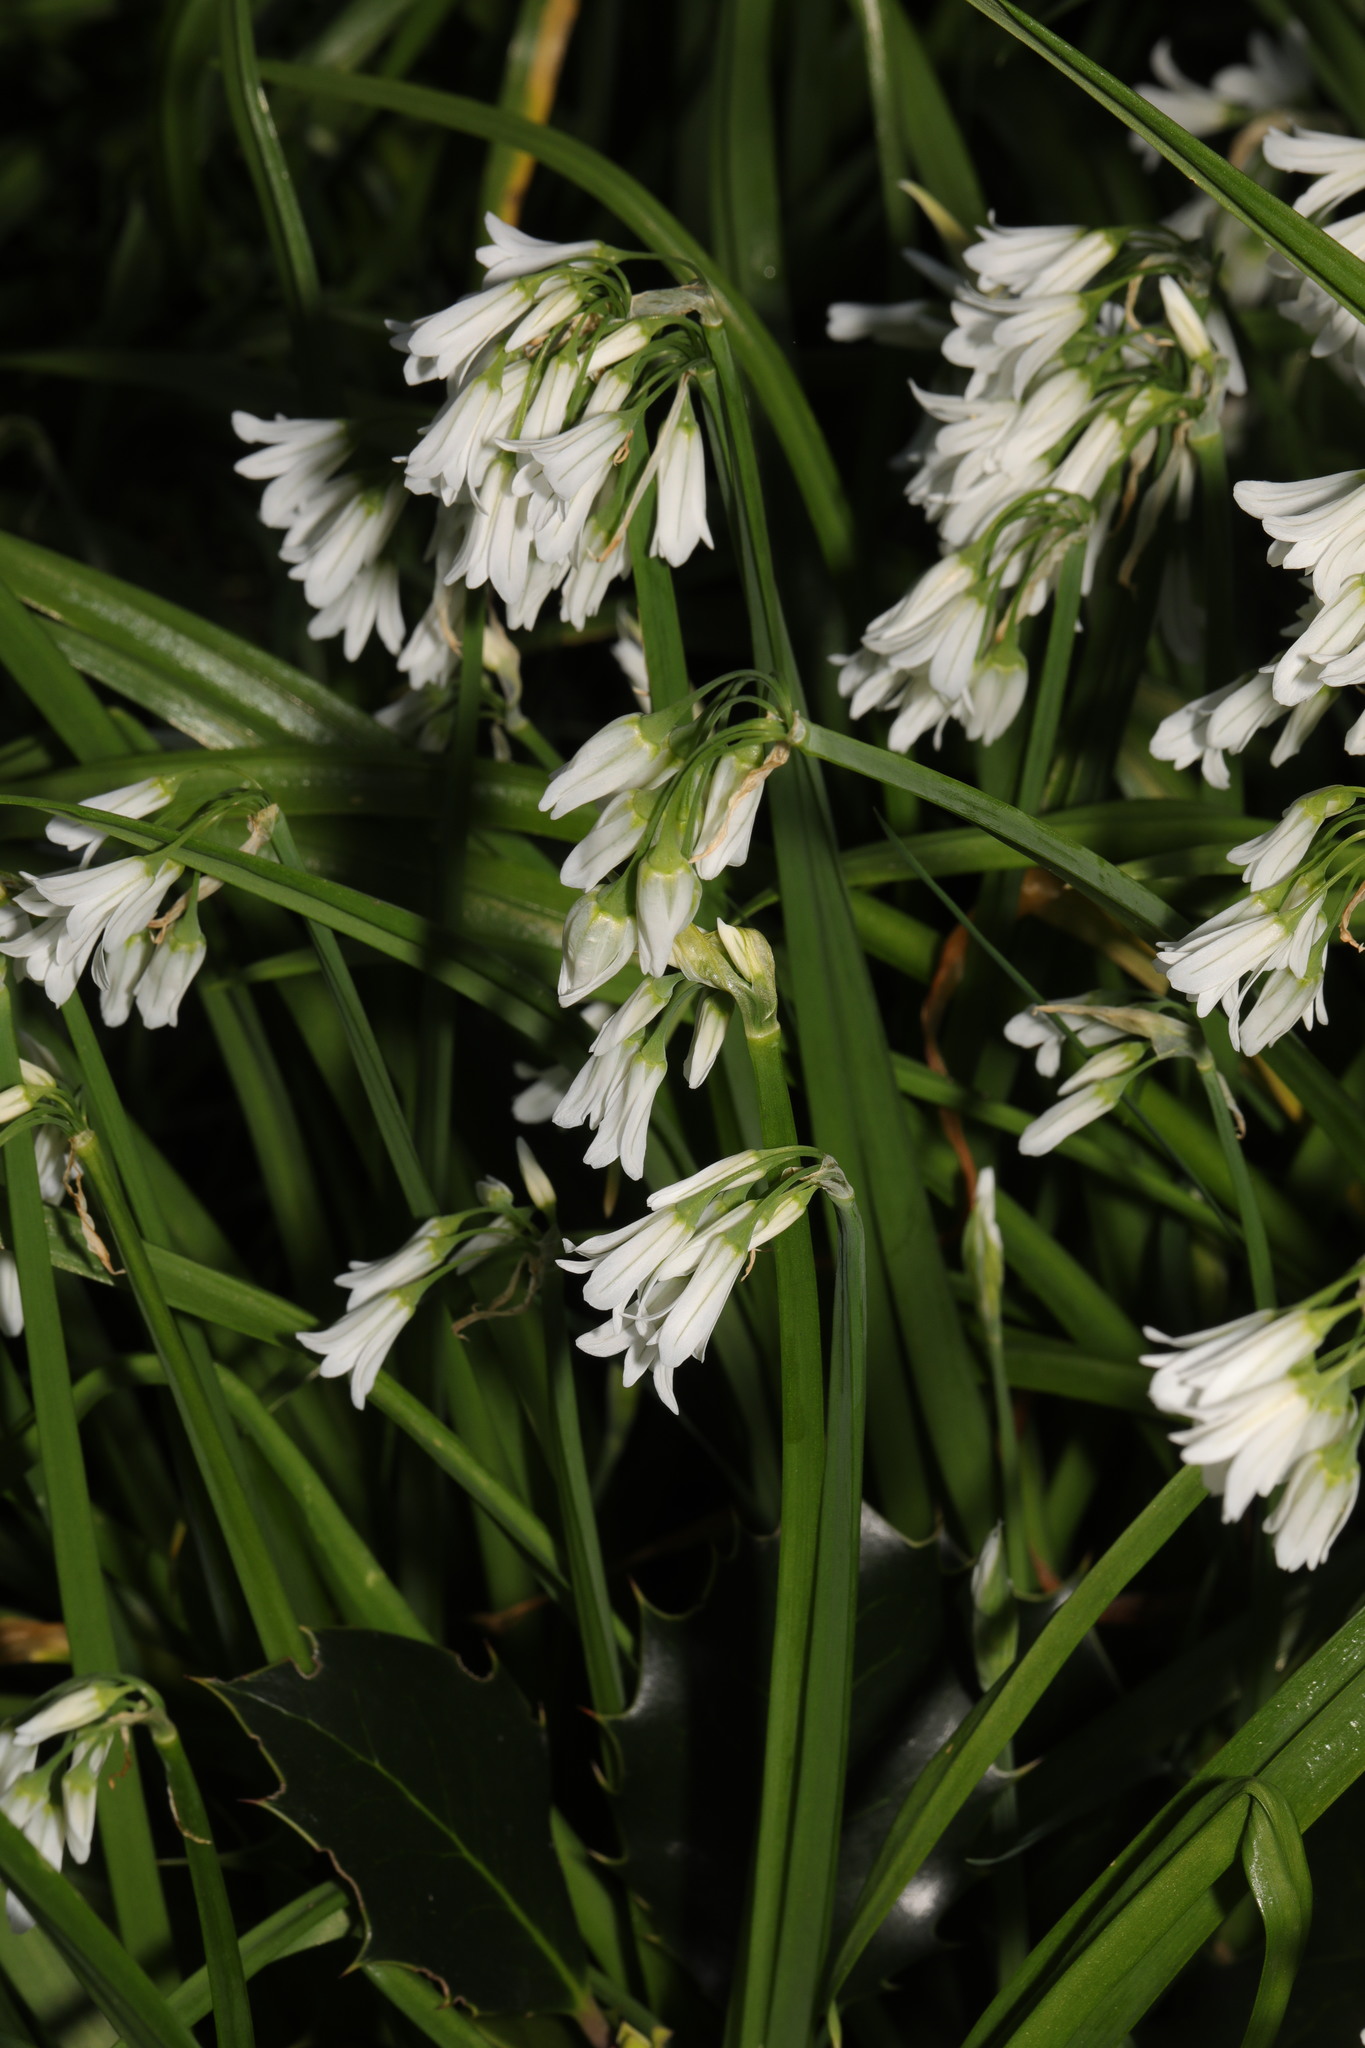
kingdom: Plantae
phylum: Tracheophyta
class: Liliopsida
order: Asparagales
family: Amaryllidaceae
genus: Allium
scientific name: Allium triquetrum
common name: Three-cornered garlic
